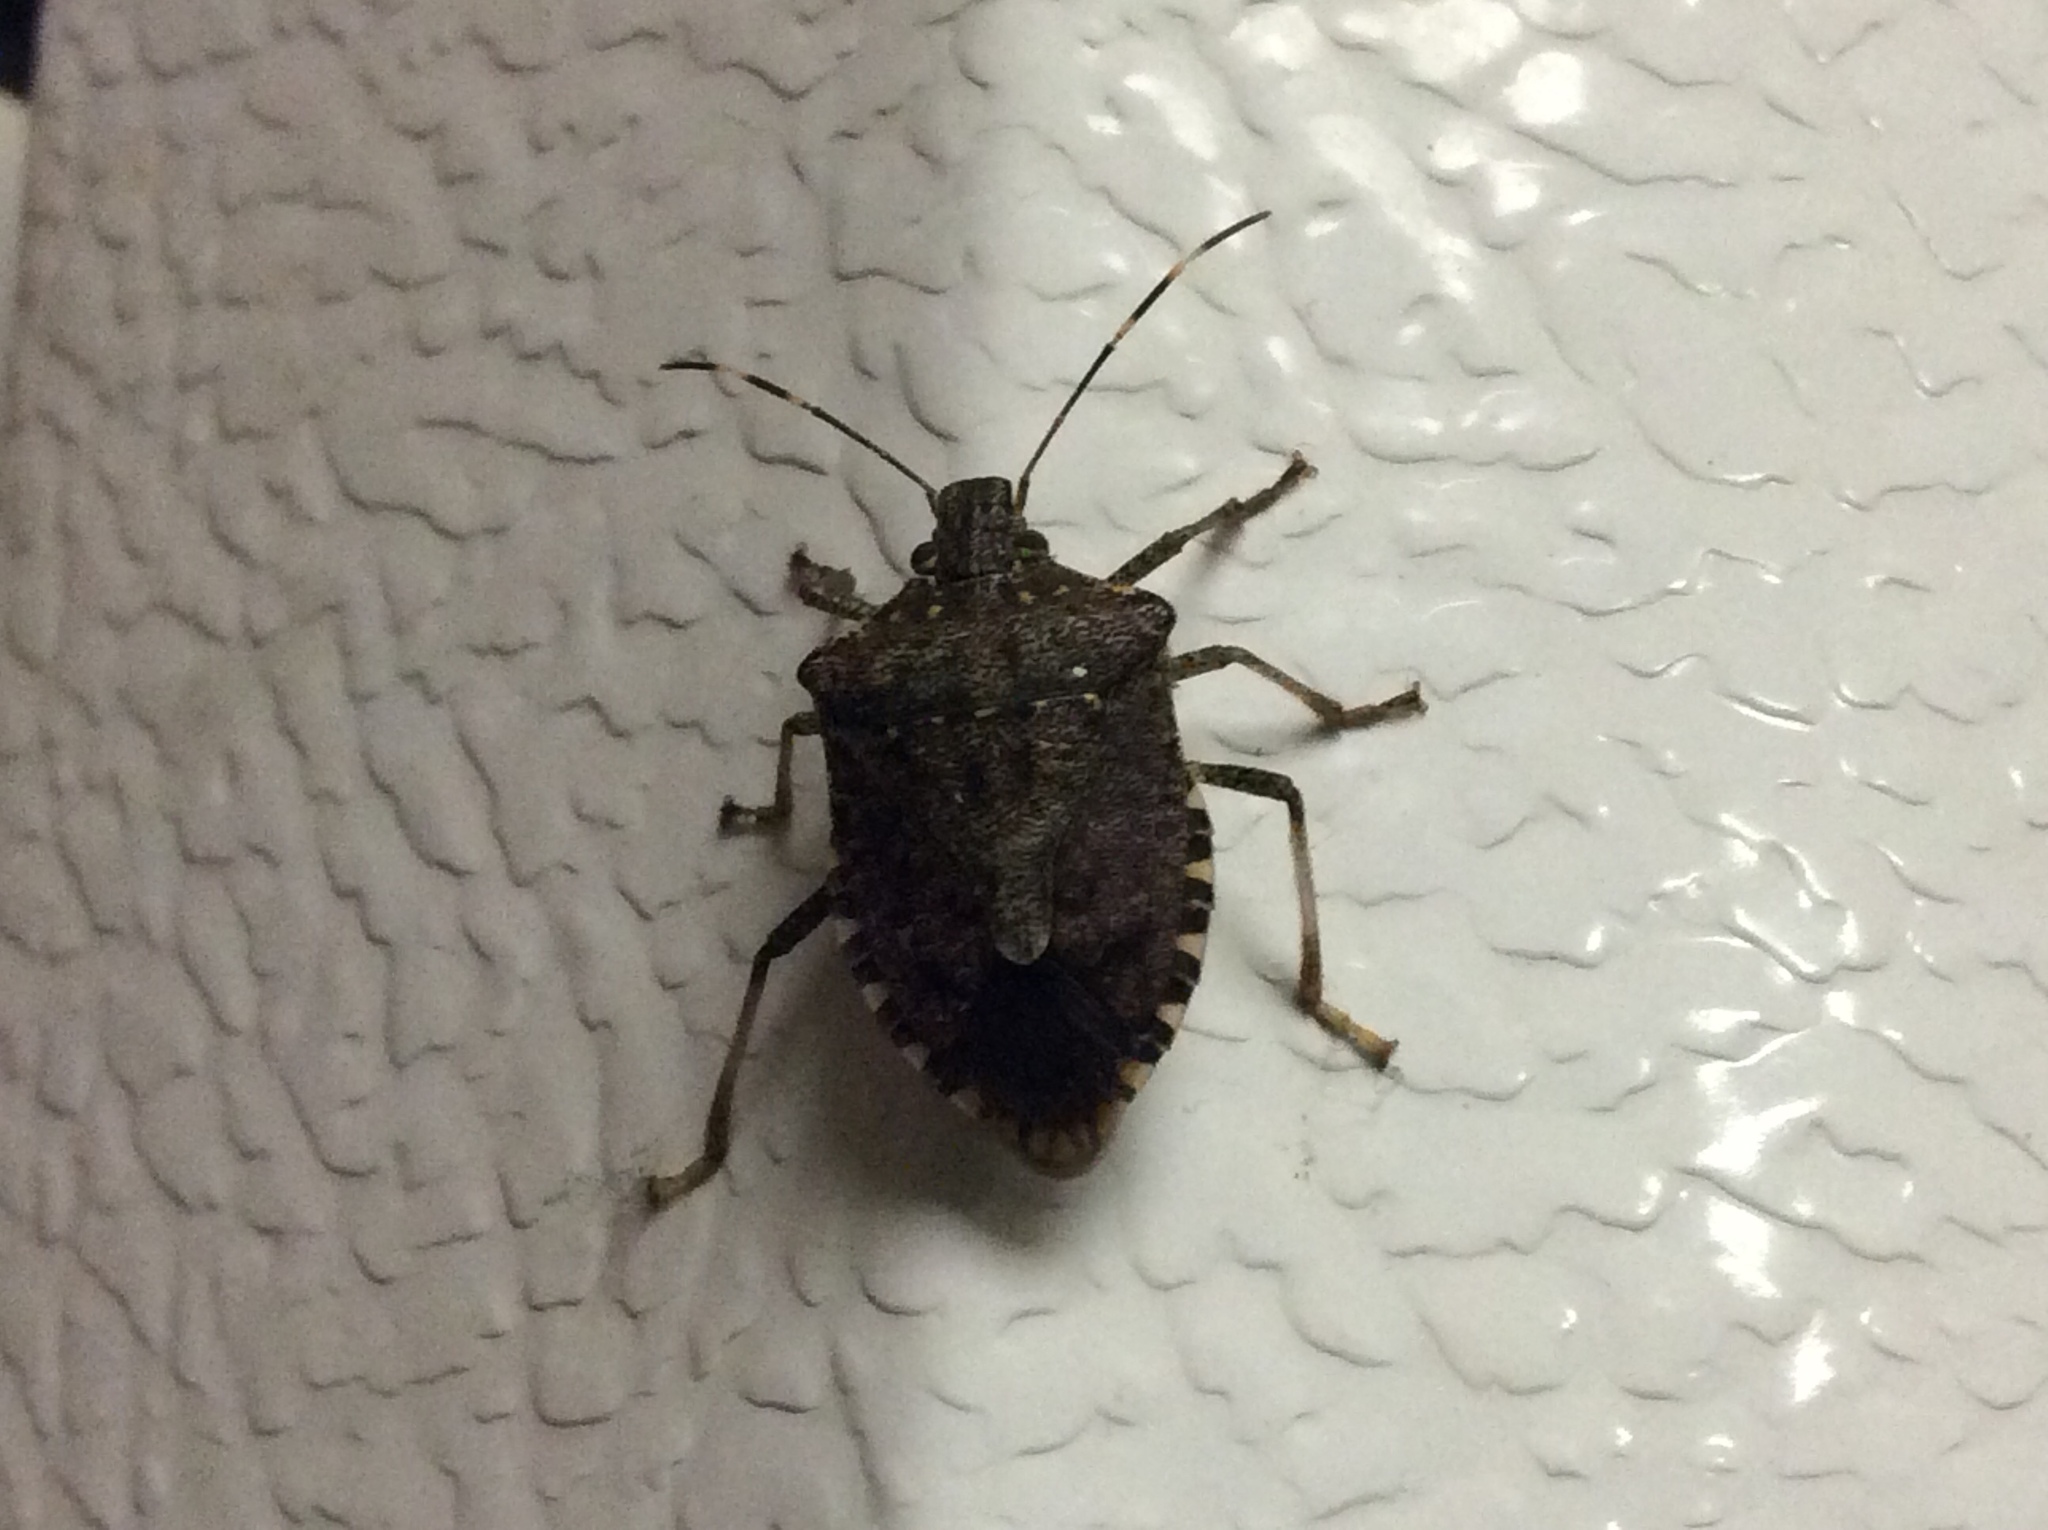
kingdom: Animalia
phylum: Arthropoda
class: Insecta
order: Hemiptera
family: Pentatomidae
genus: Halyomorpha
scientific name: Halyomorpha halys
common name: Brown marmorated stink bug
